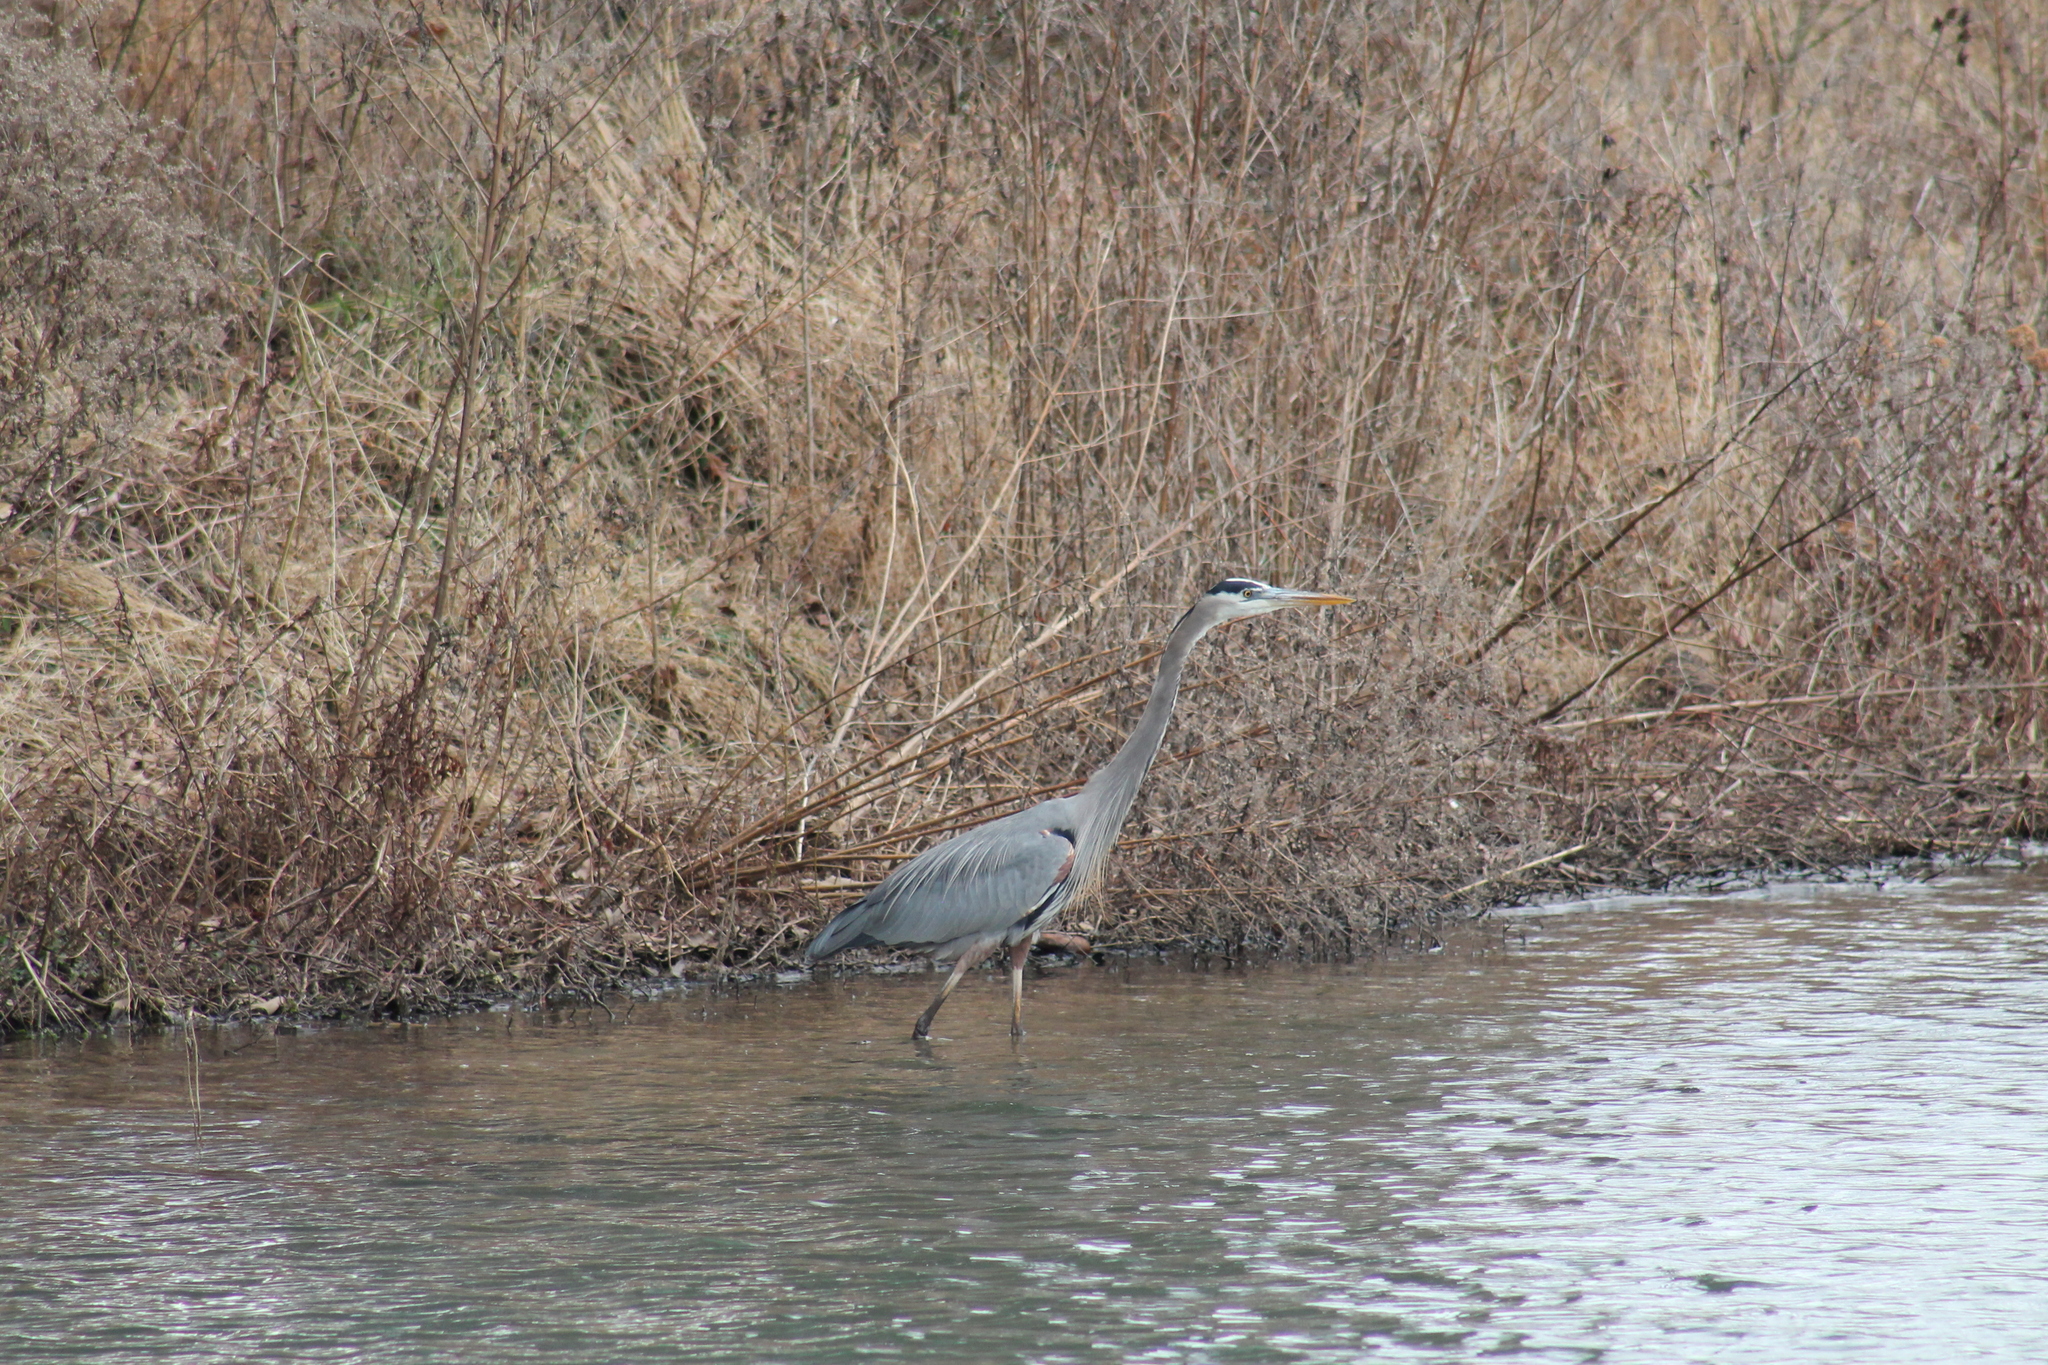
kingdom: Animalia
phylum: Chordata
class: Aves
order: Pelecaniformes
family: Ardeidae
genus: Ardea
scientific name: Ardea herodias
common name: Great blue heron
